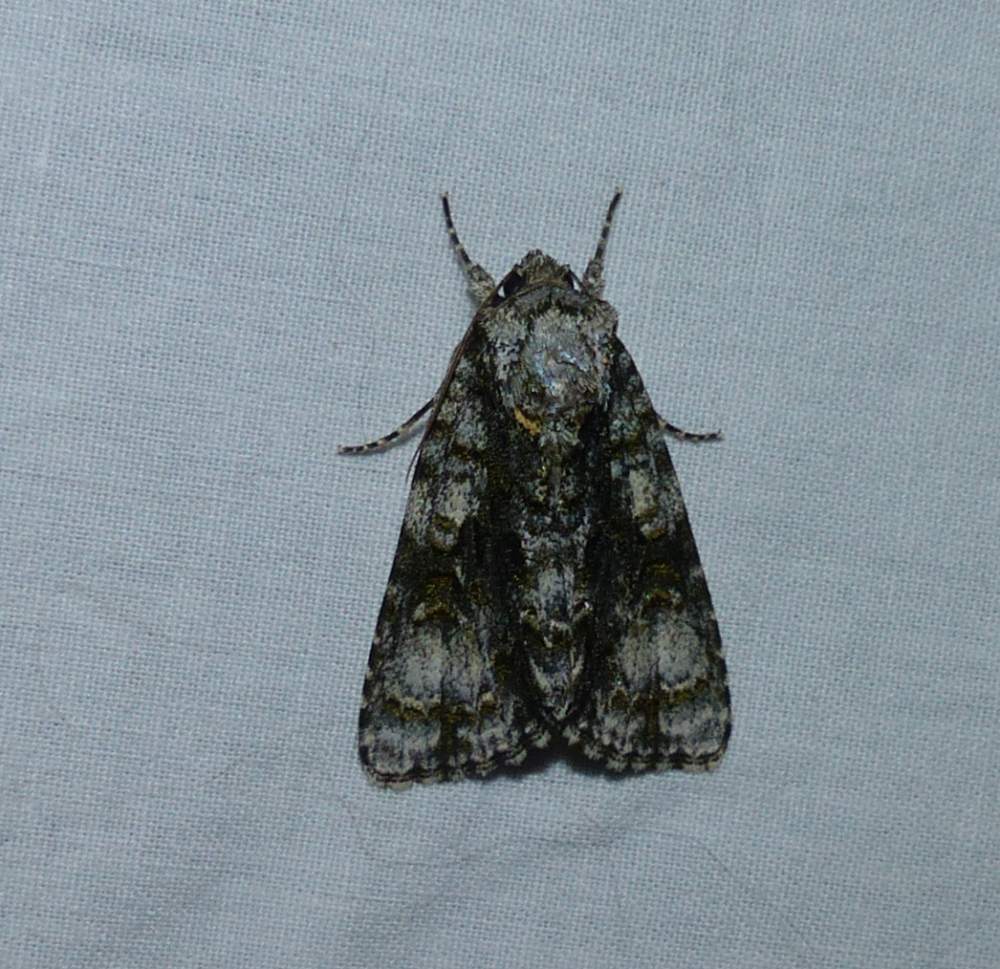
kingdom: Animalia
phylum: Arthropoda
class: Insecta
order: Lepidoptera
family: Noctuidae
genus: Acronicta
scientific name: Acronicta superans
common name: Splendid dagger
